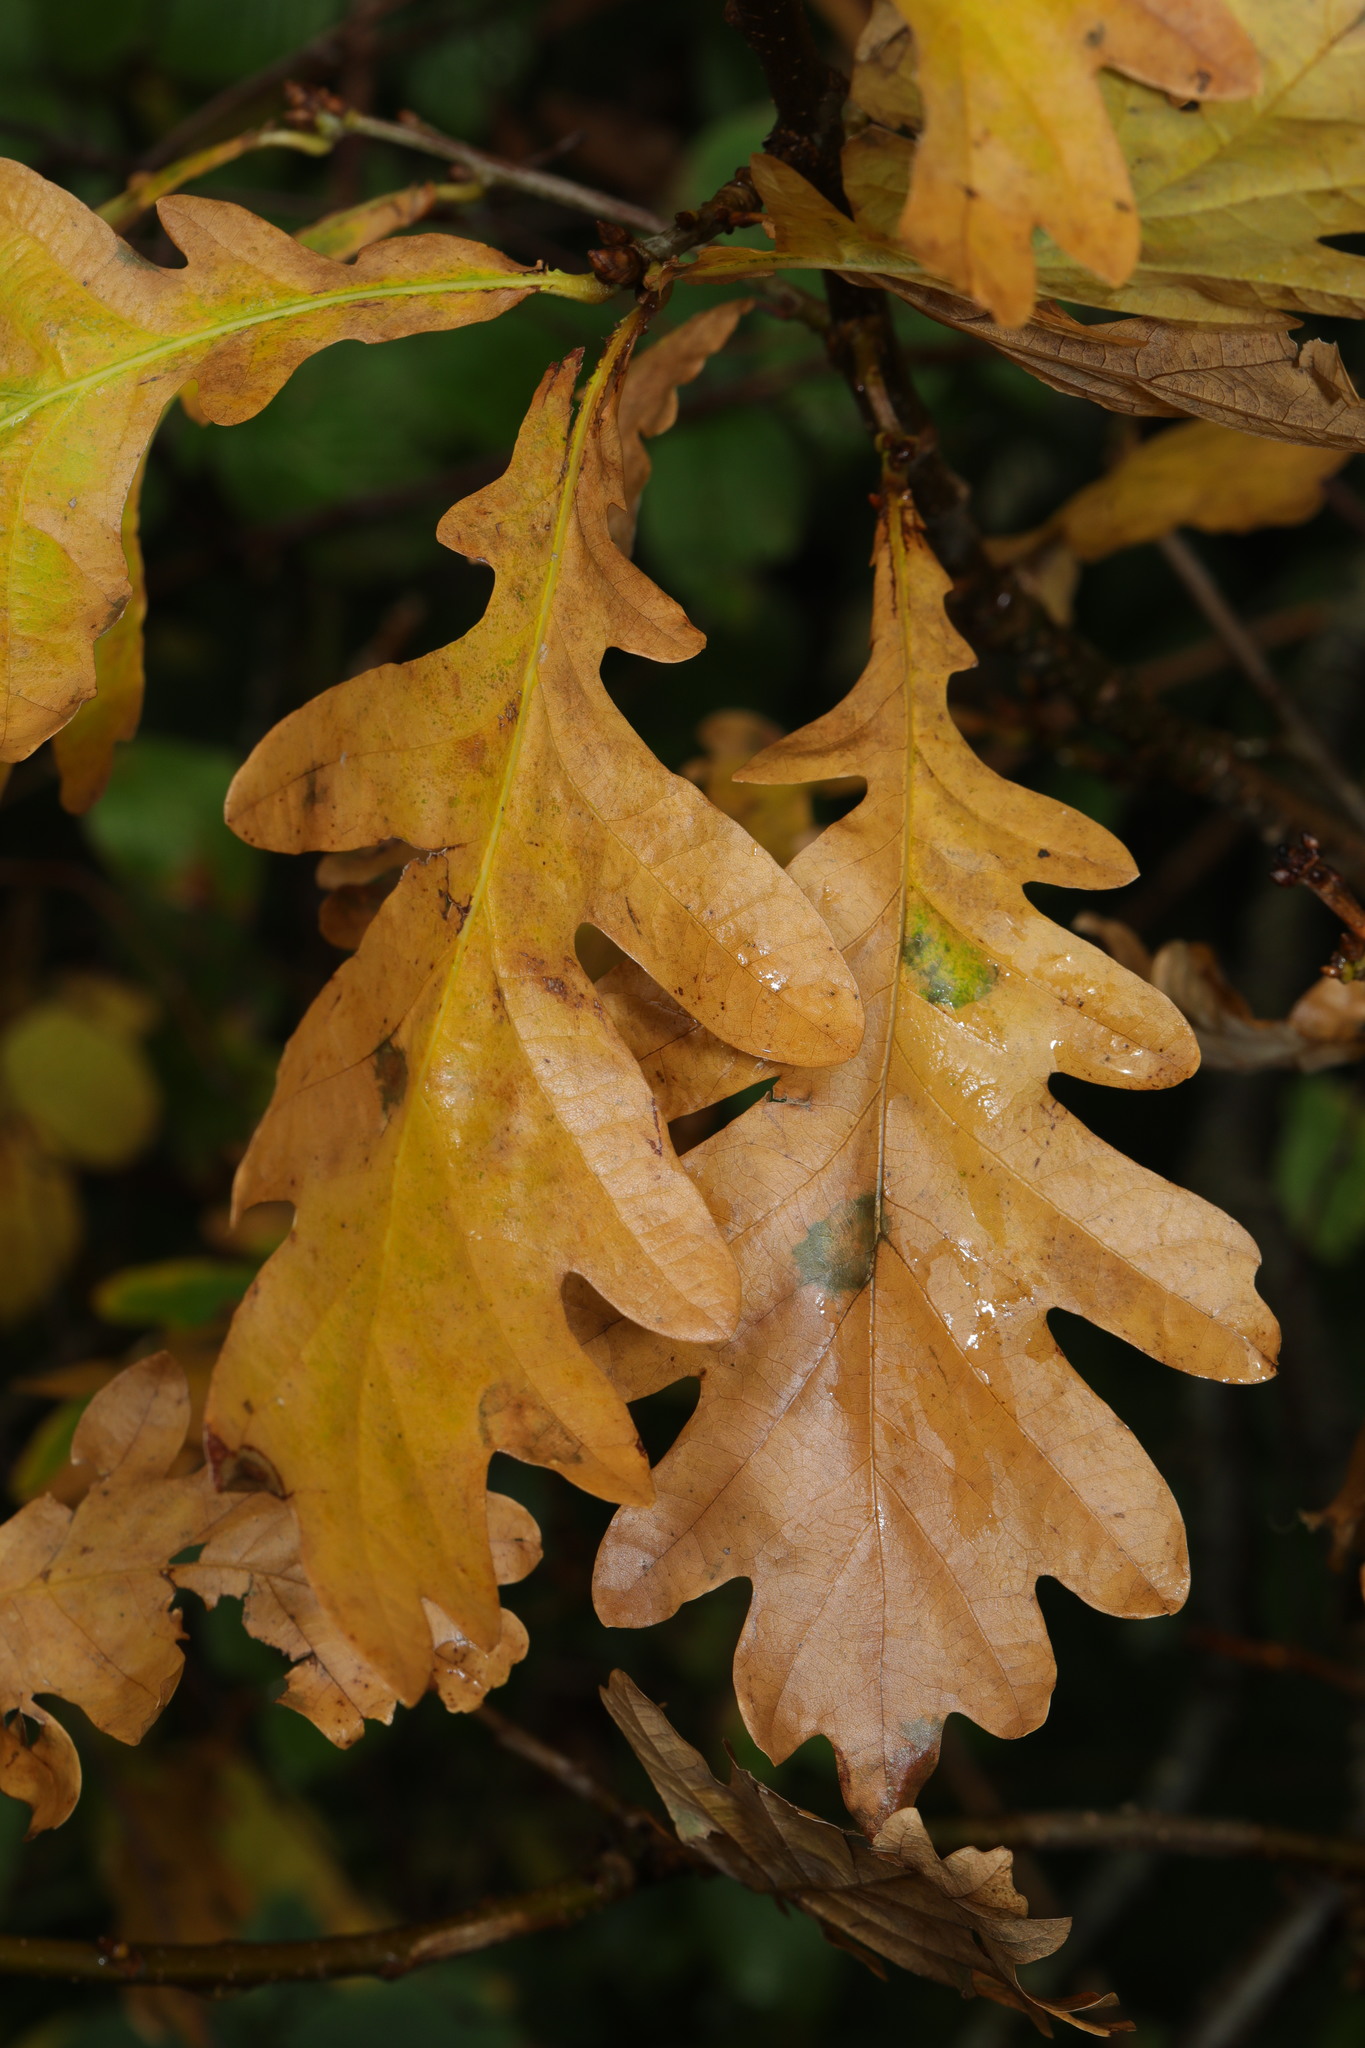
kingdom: Plantae
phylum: Tracheophyta
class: Magnoliopsida
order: Fagales
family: Fagaceae
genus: Quercus
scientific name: Quercus robur
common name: Pedunculate oak
